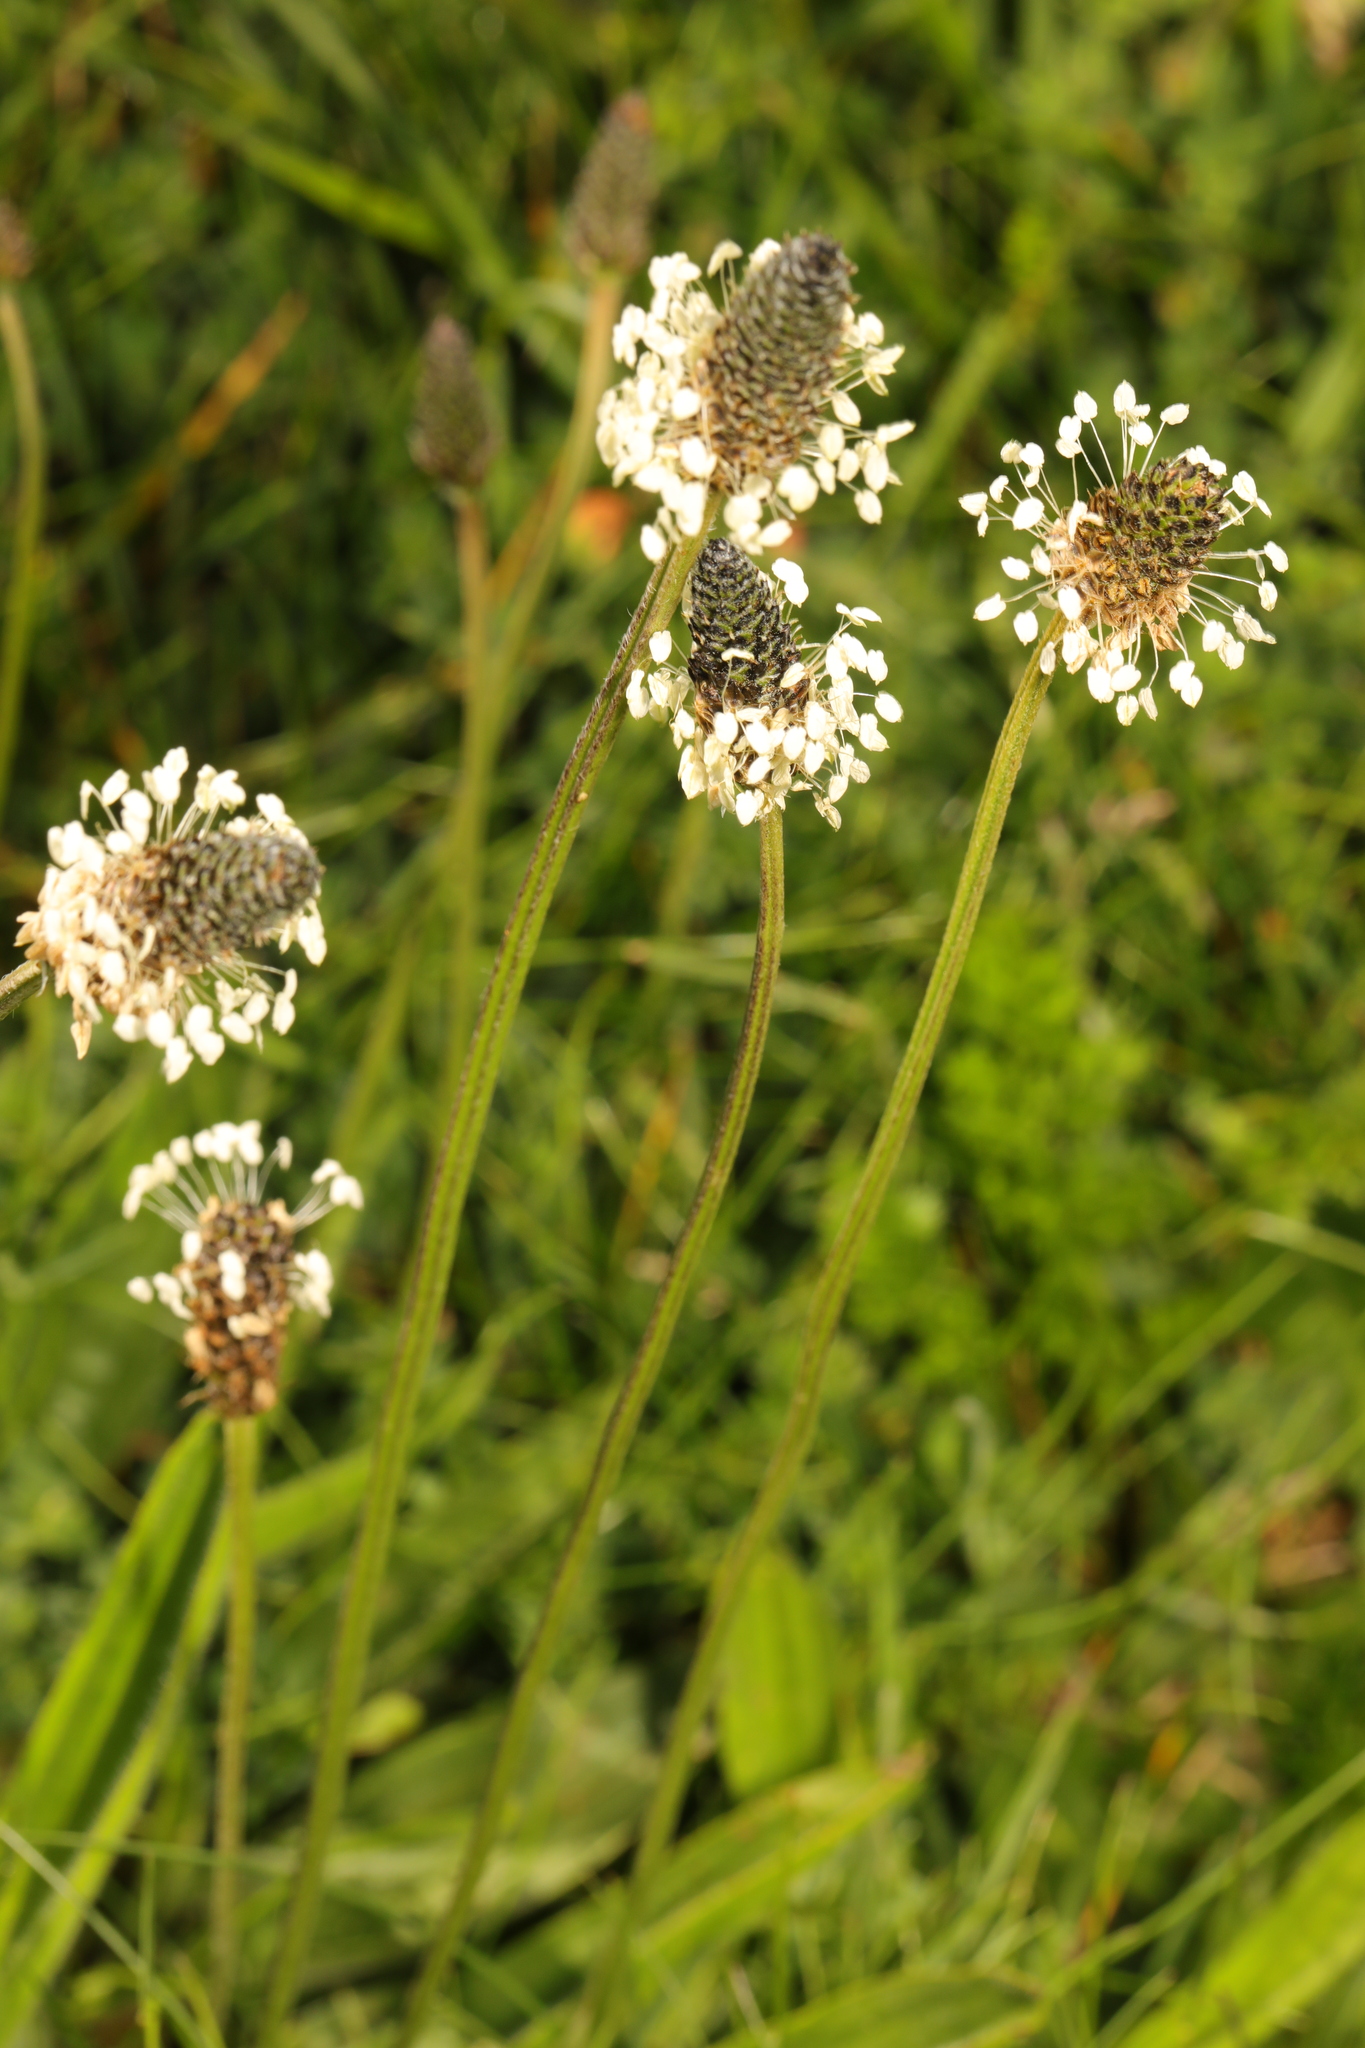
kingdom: Plantae
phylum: Tracheophyta
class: Magnoliopsida
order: Lamiales
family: Plantaginaceae
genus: Plantago
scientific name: Plantago lanceolata
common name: Ribwort plantain
